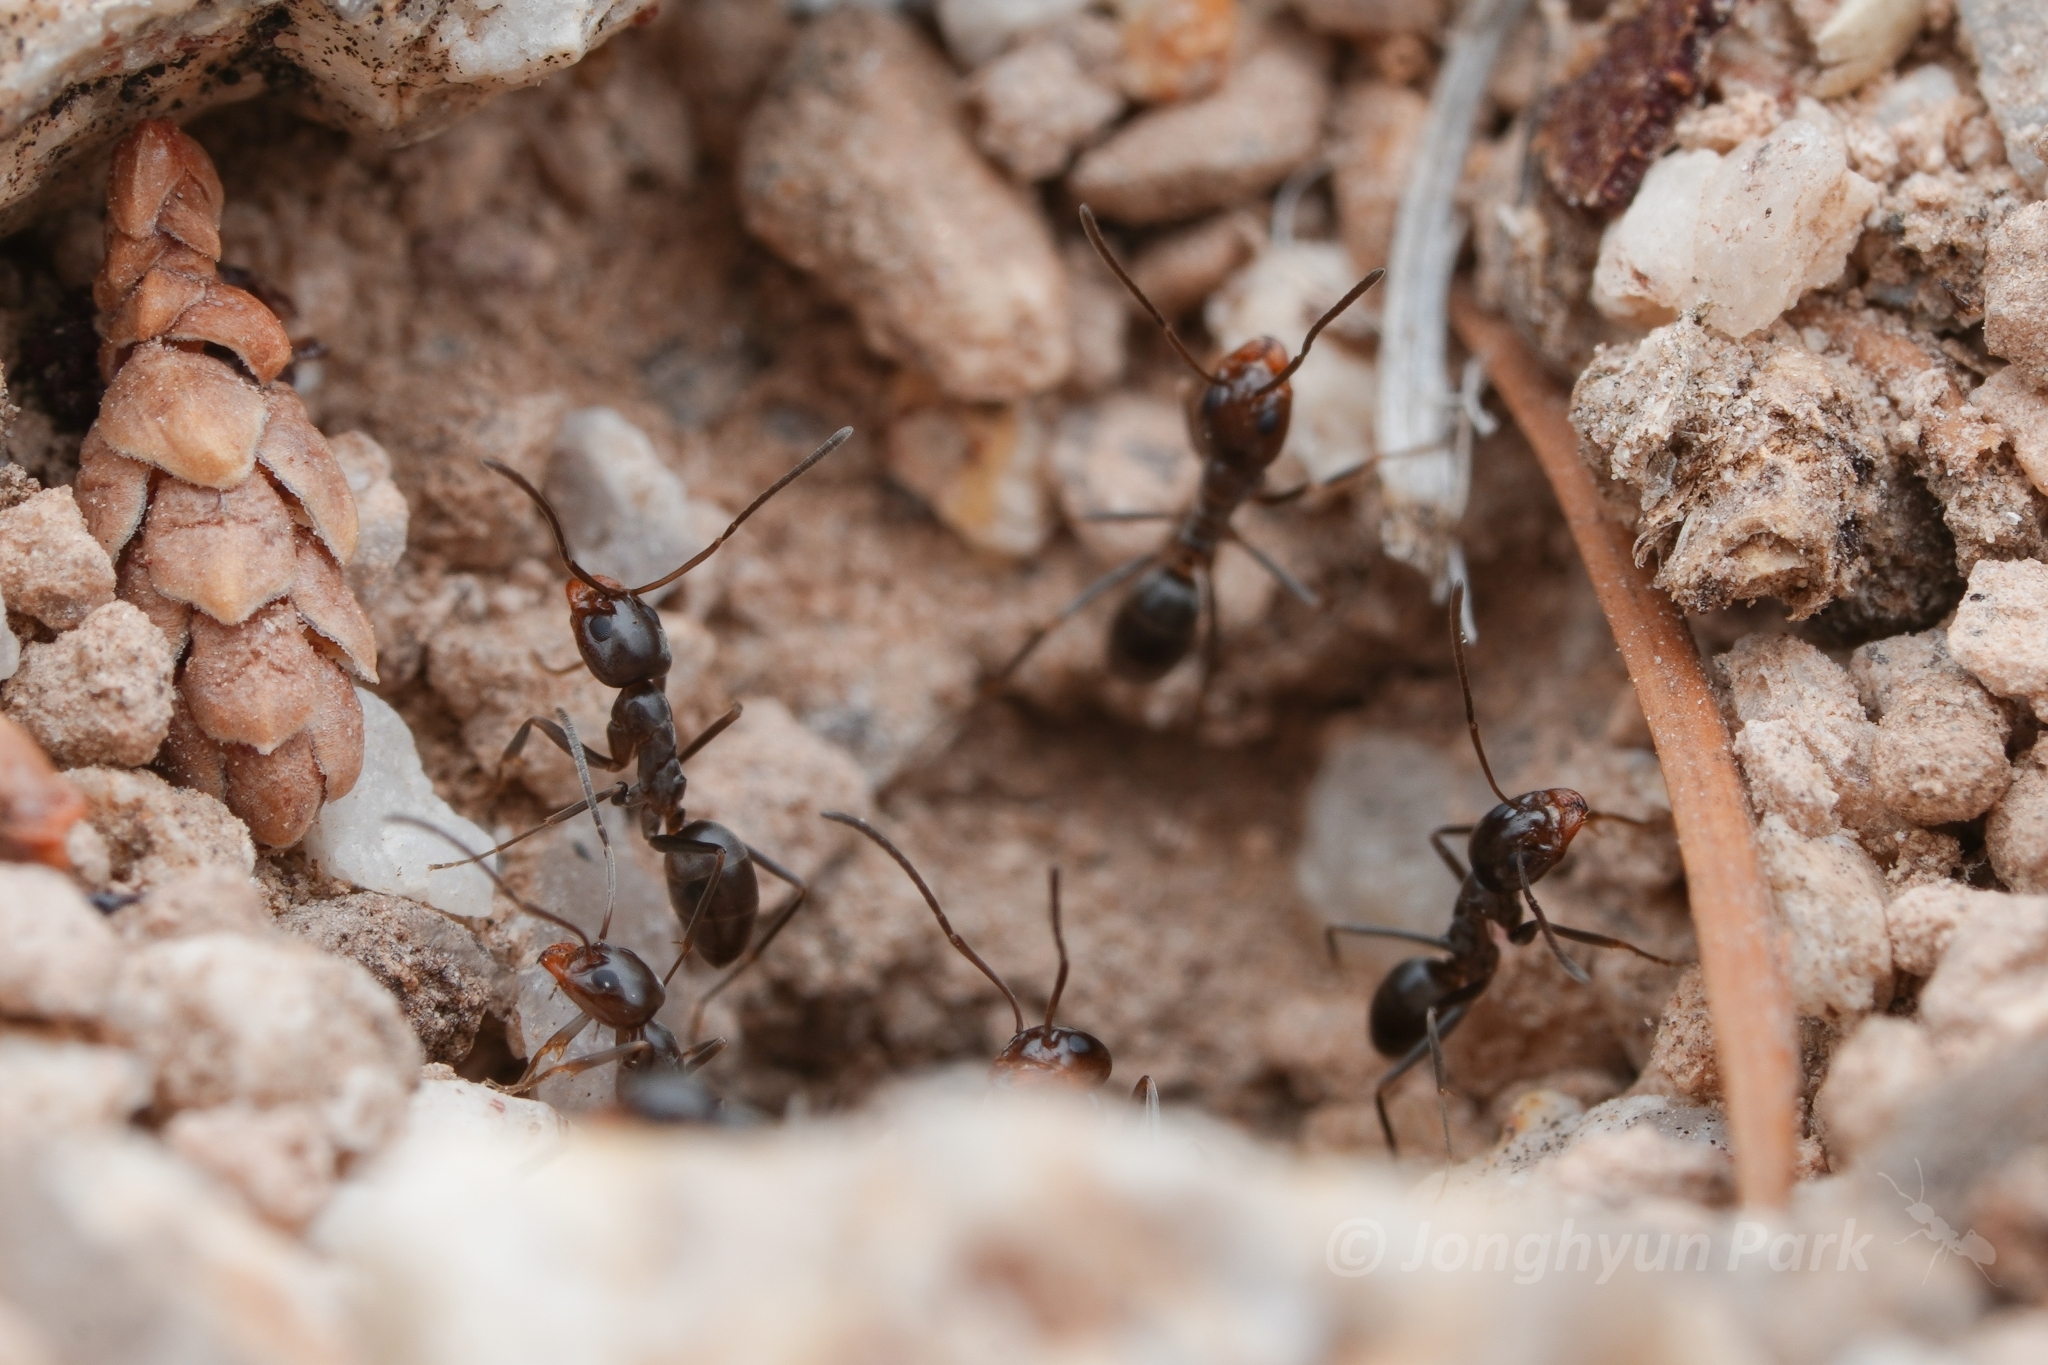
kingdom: Animalia
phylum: Arthropoda
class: Insecta
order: Hymenoptera
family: Formicidae
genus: Dorymyrmex
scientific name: Dorymyrmex insanus
